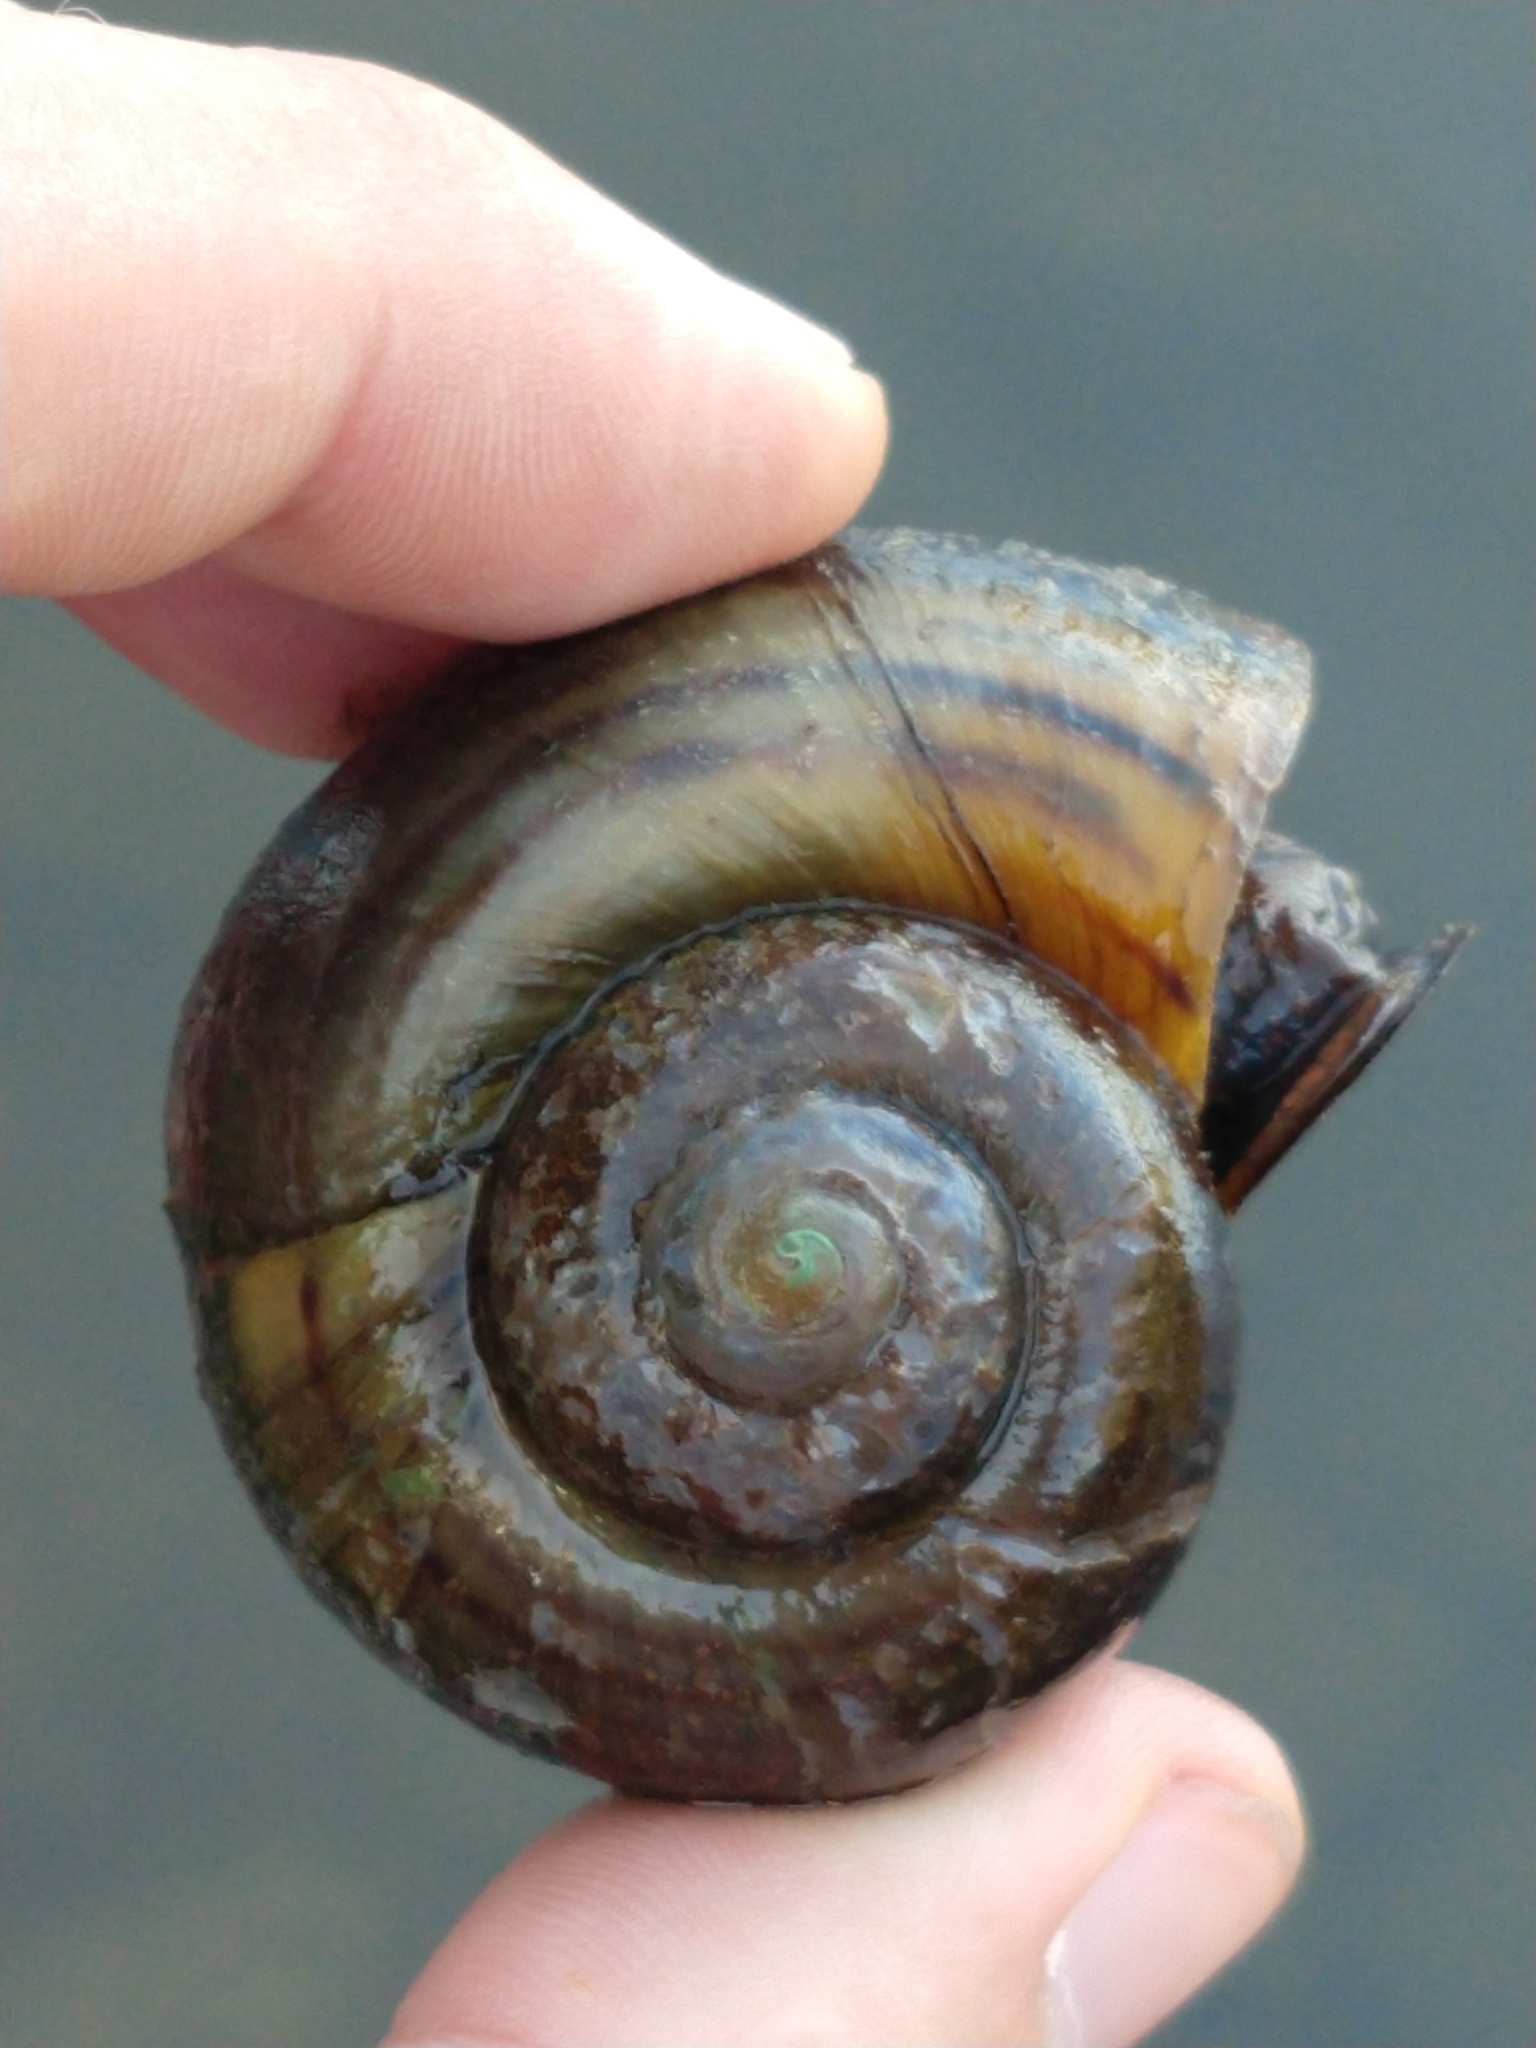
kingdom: Animalia
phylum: Mollusca
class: Gastropoda
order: Architaenioglossa
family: Ampullariidae
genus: Pomacea
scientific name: Pomacea canaliculata
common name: Channeled applesnail
